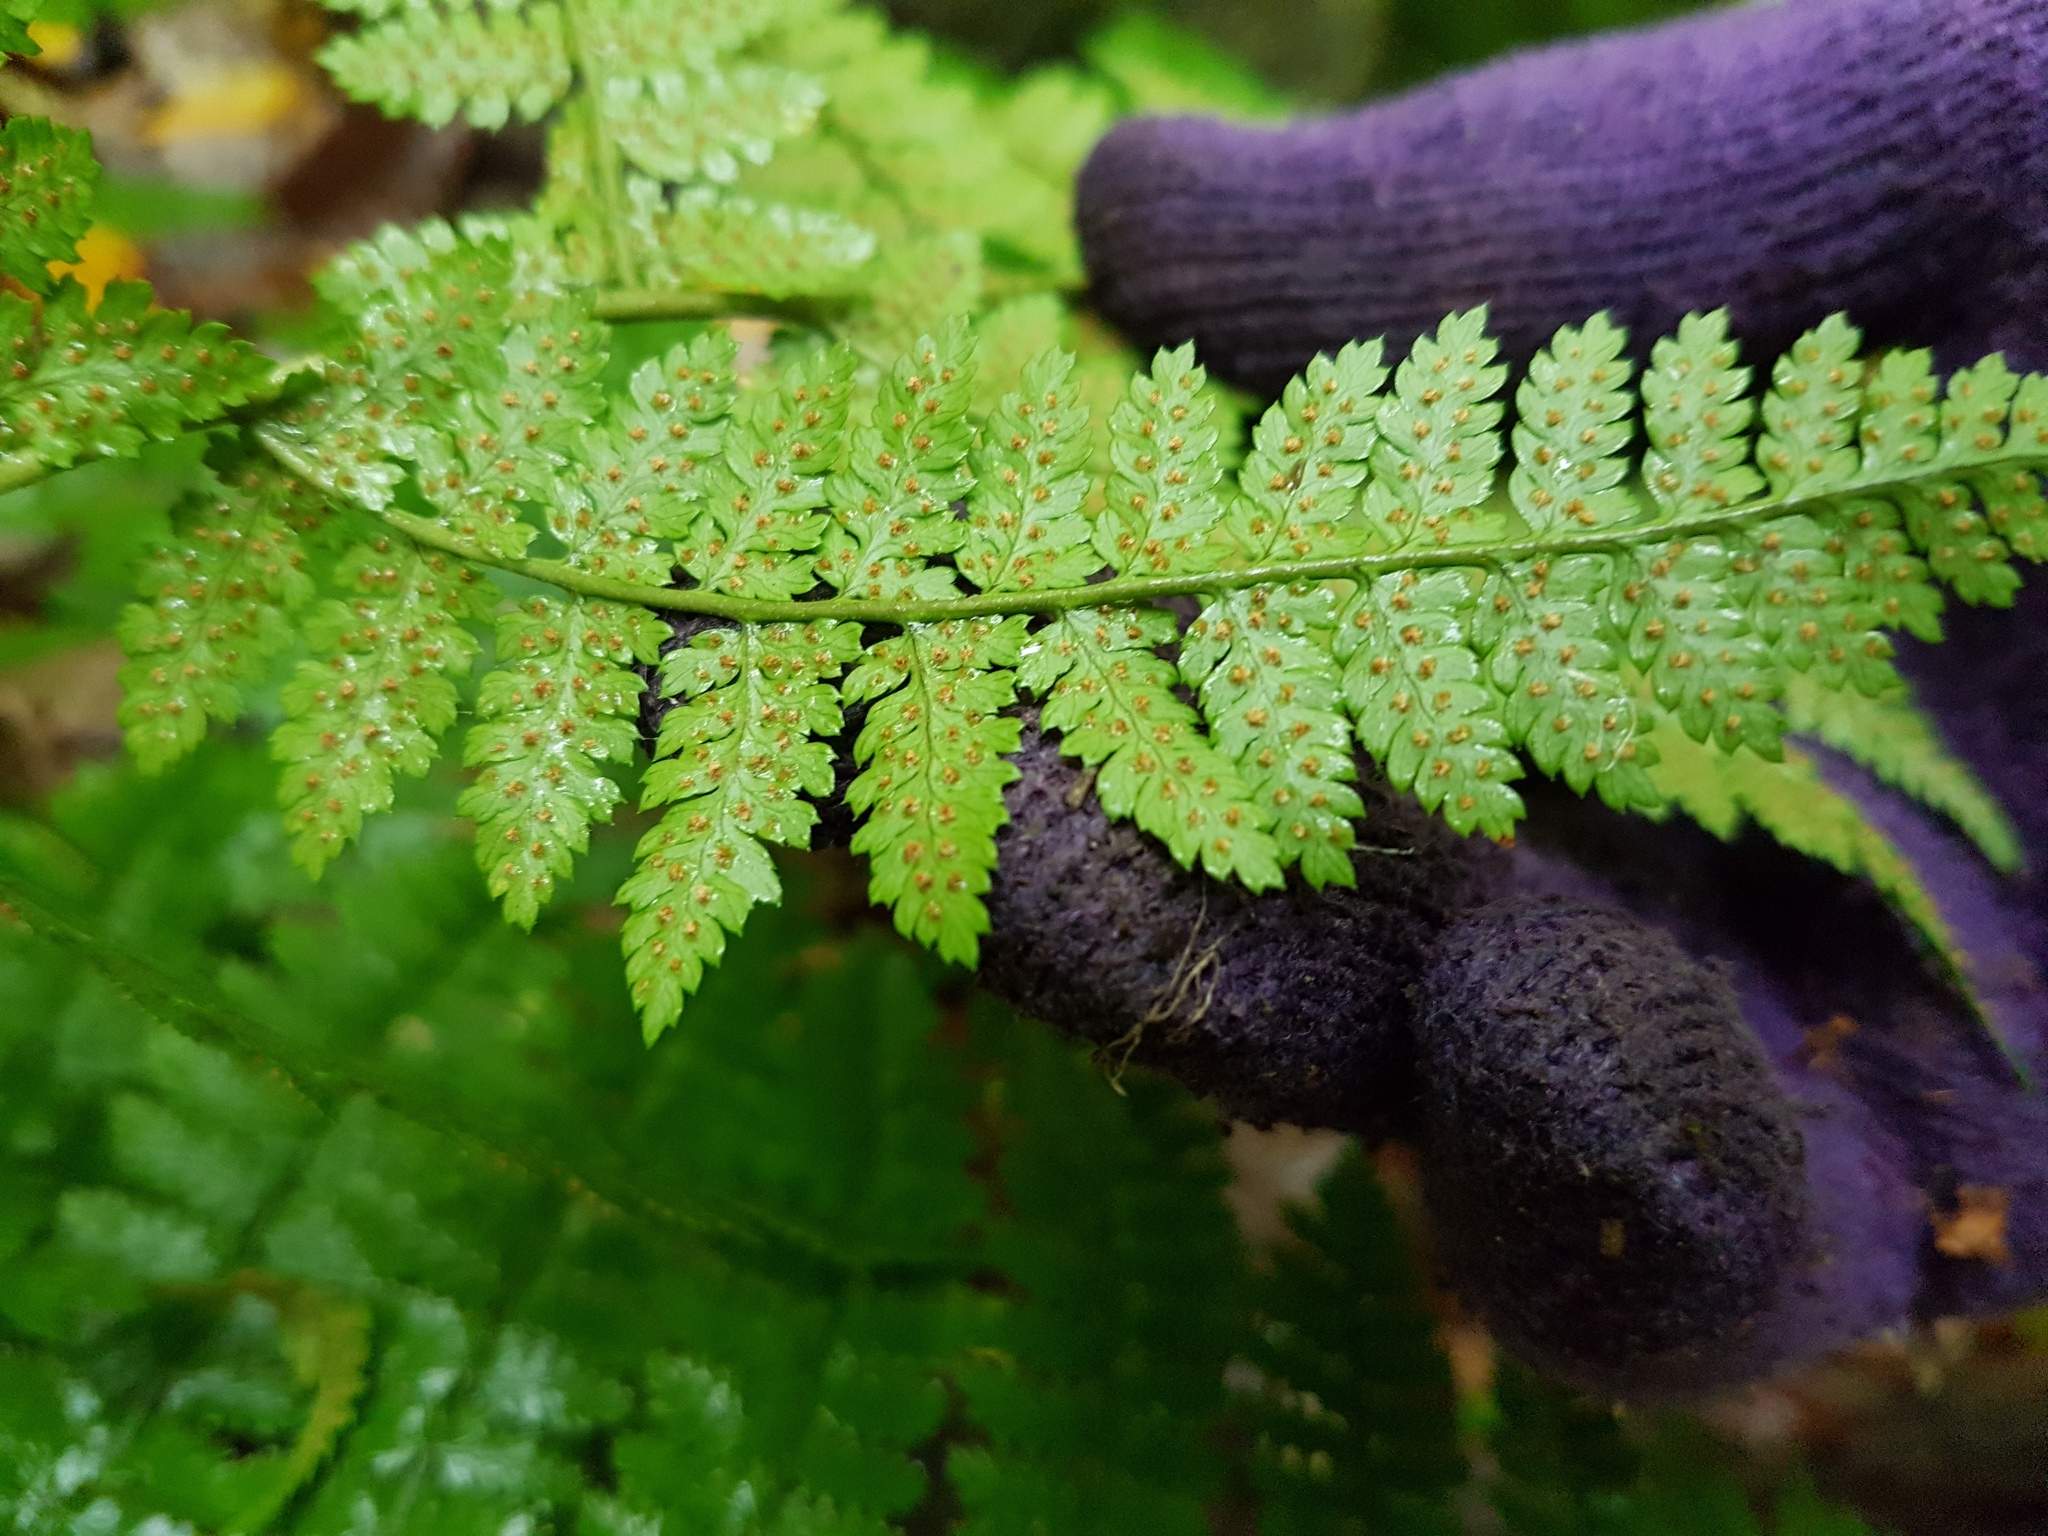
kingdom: Plantae
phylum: Tracheophyta
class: Polypodiopsida
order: Polypodiales
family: Dryopteridaceae
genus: Dryopteris
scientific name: Dryopteris intermedia
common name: Evergreen wood fern
